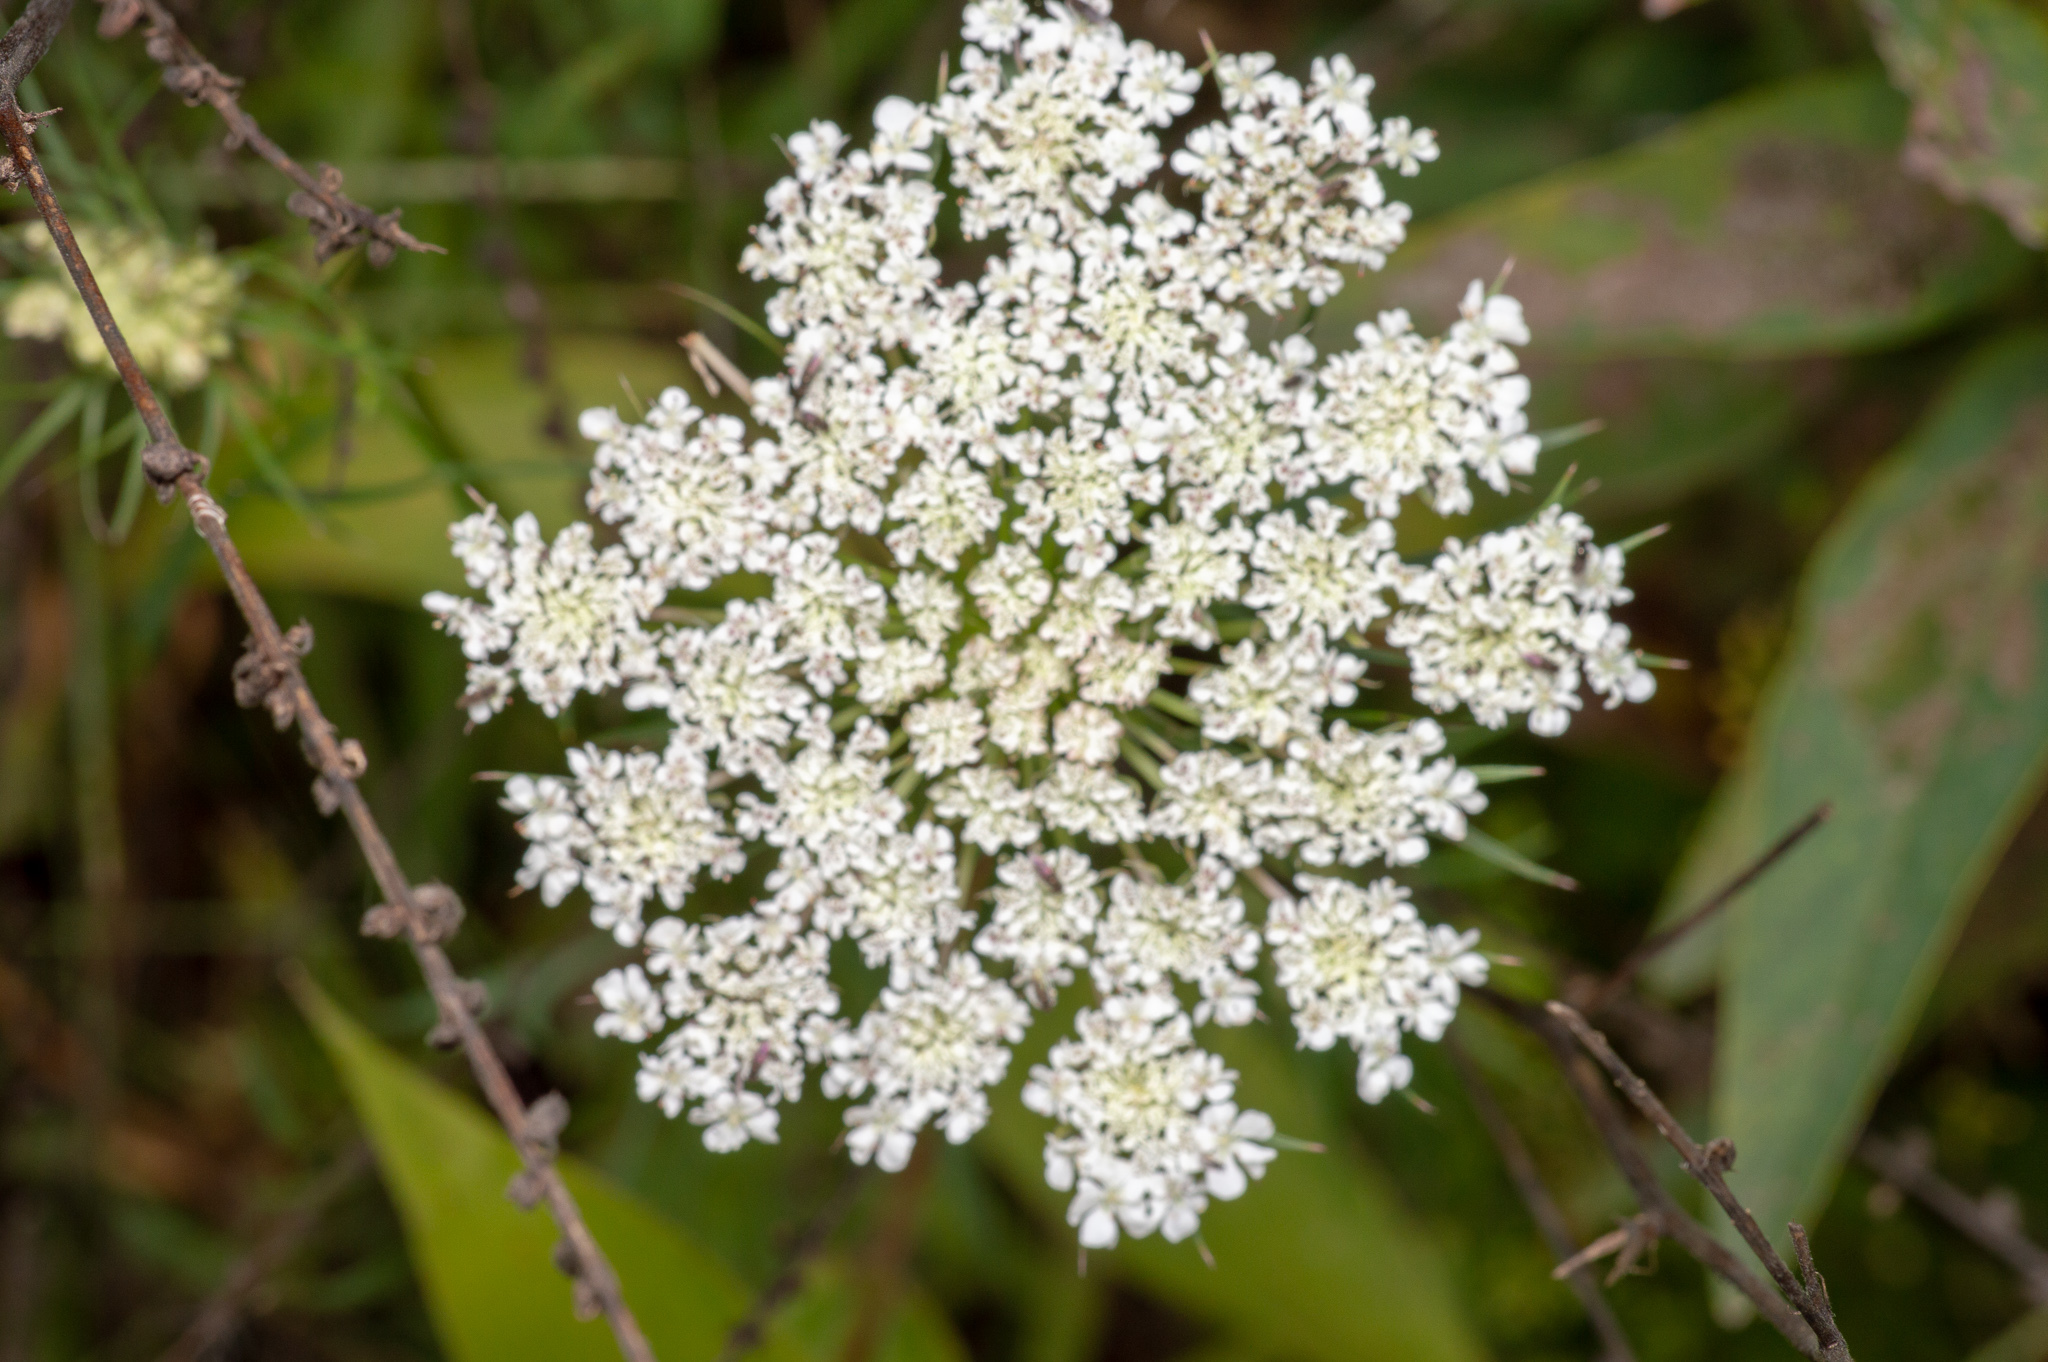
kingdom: Plantae
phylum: Tracheophyta
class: Magnoliopsida
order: Apiales
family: Apiaceae
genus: Daucus
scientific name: Daucus carota
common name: Wild carrot
